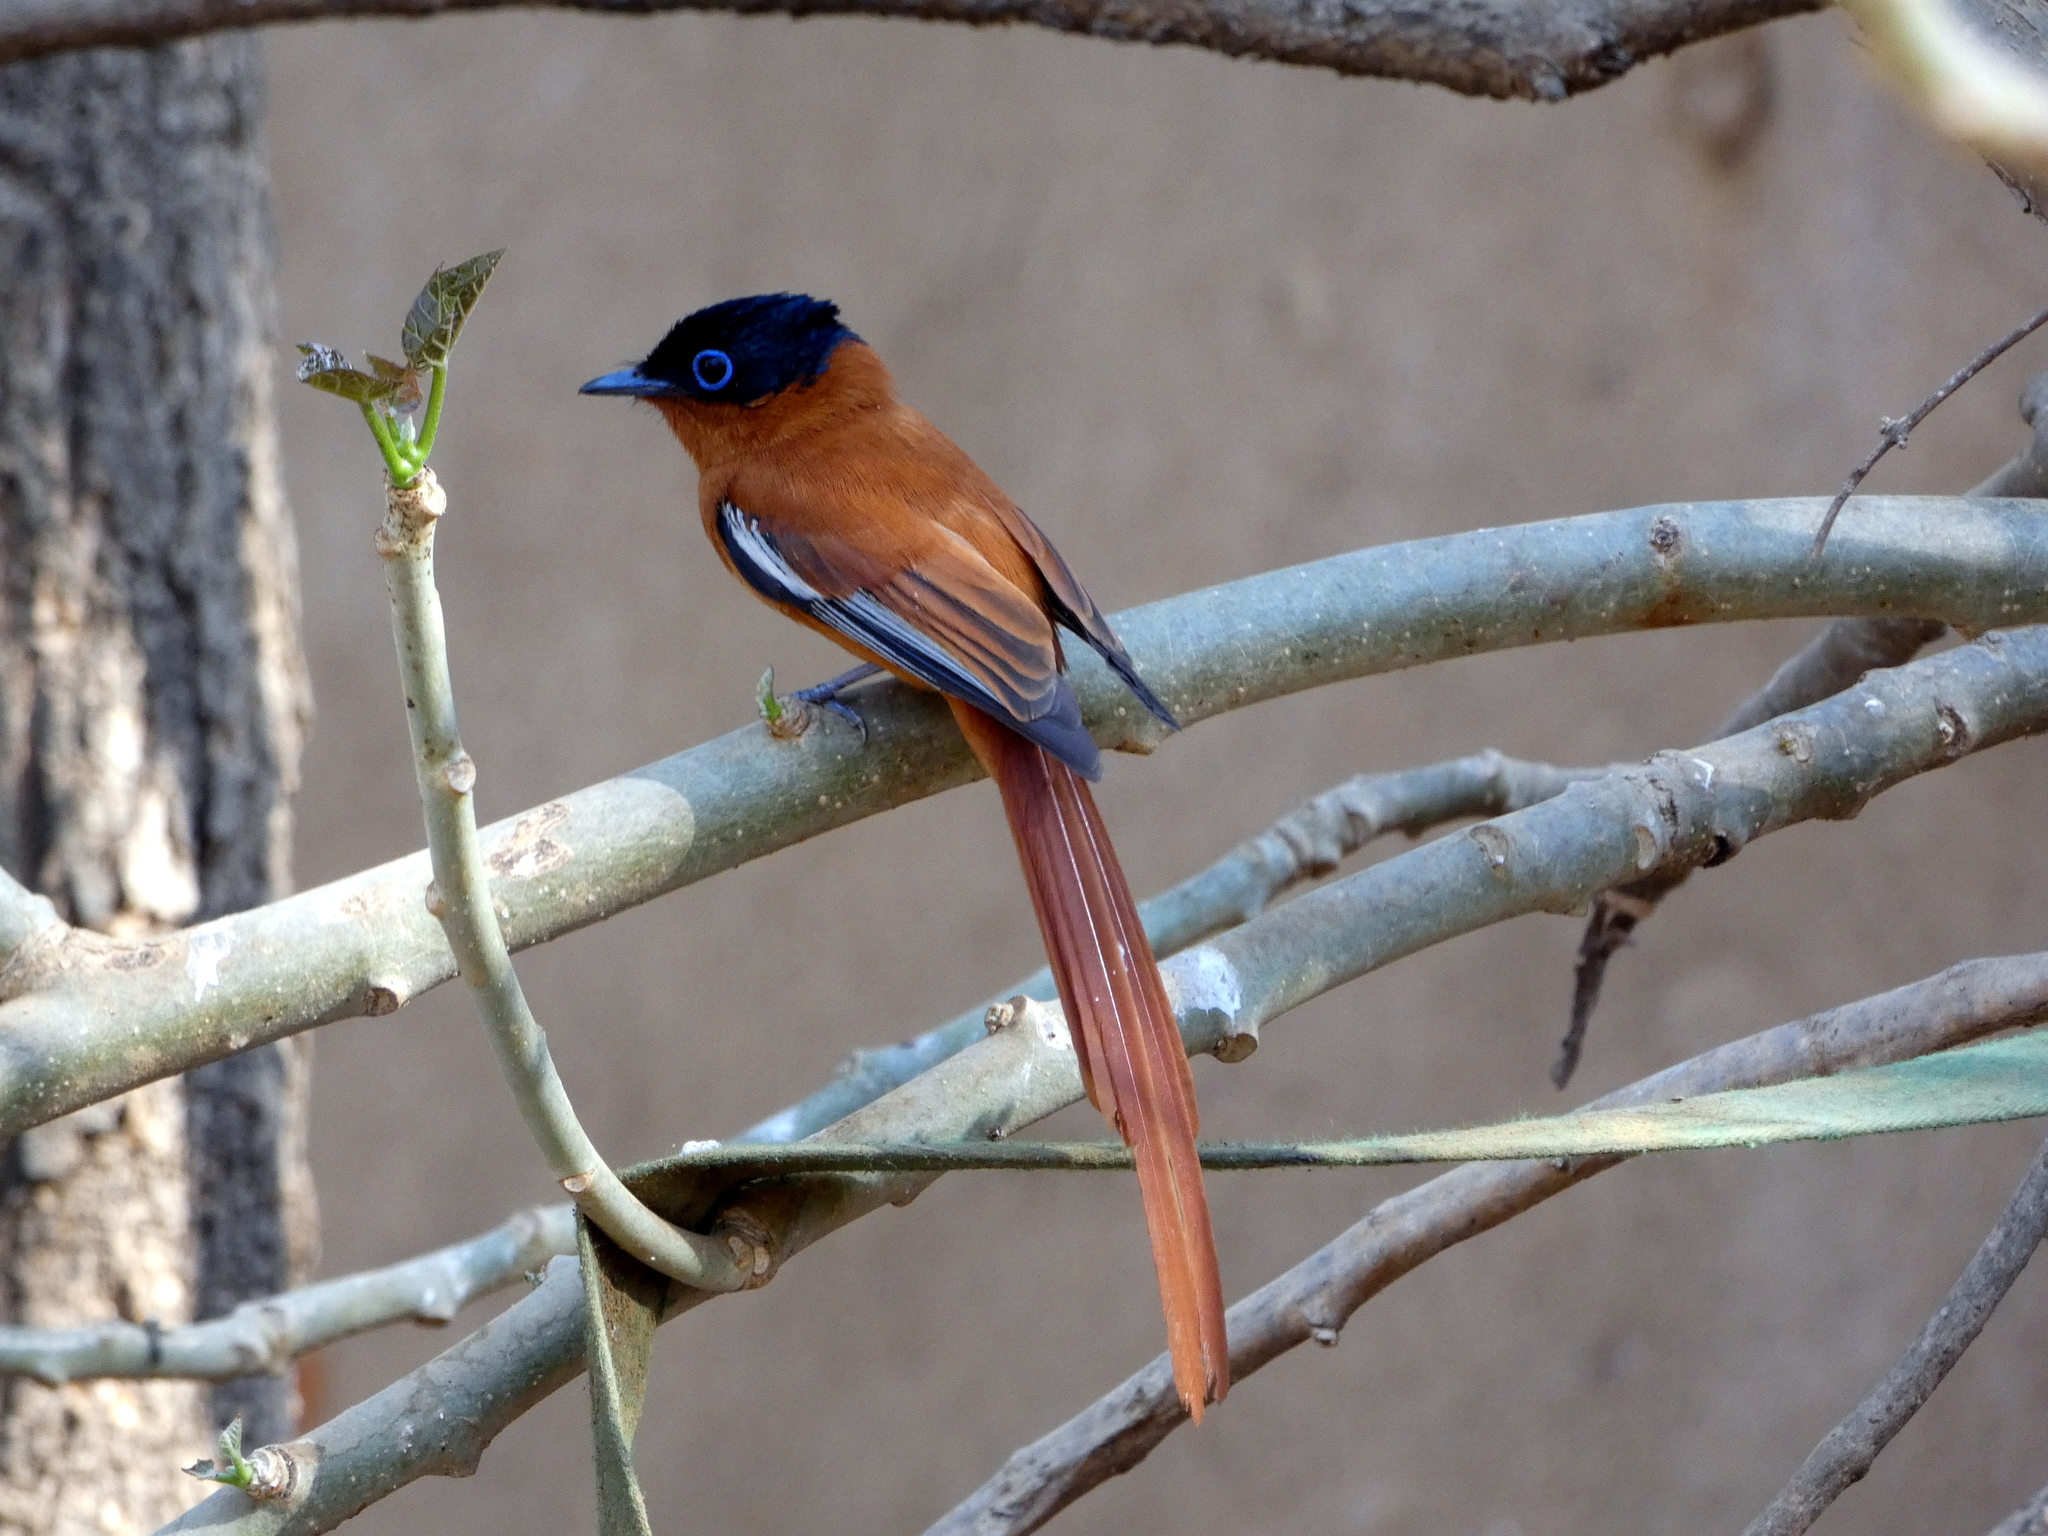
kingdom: Animalia
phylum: Chordata
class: Aves
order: Passeriformes
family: Monarchidae
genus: Terpsiphone
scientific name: Terpsiphone mutata
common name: Malagasy paradise flycatcher
